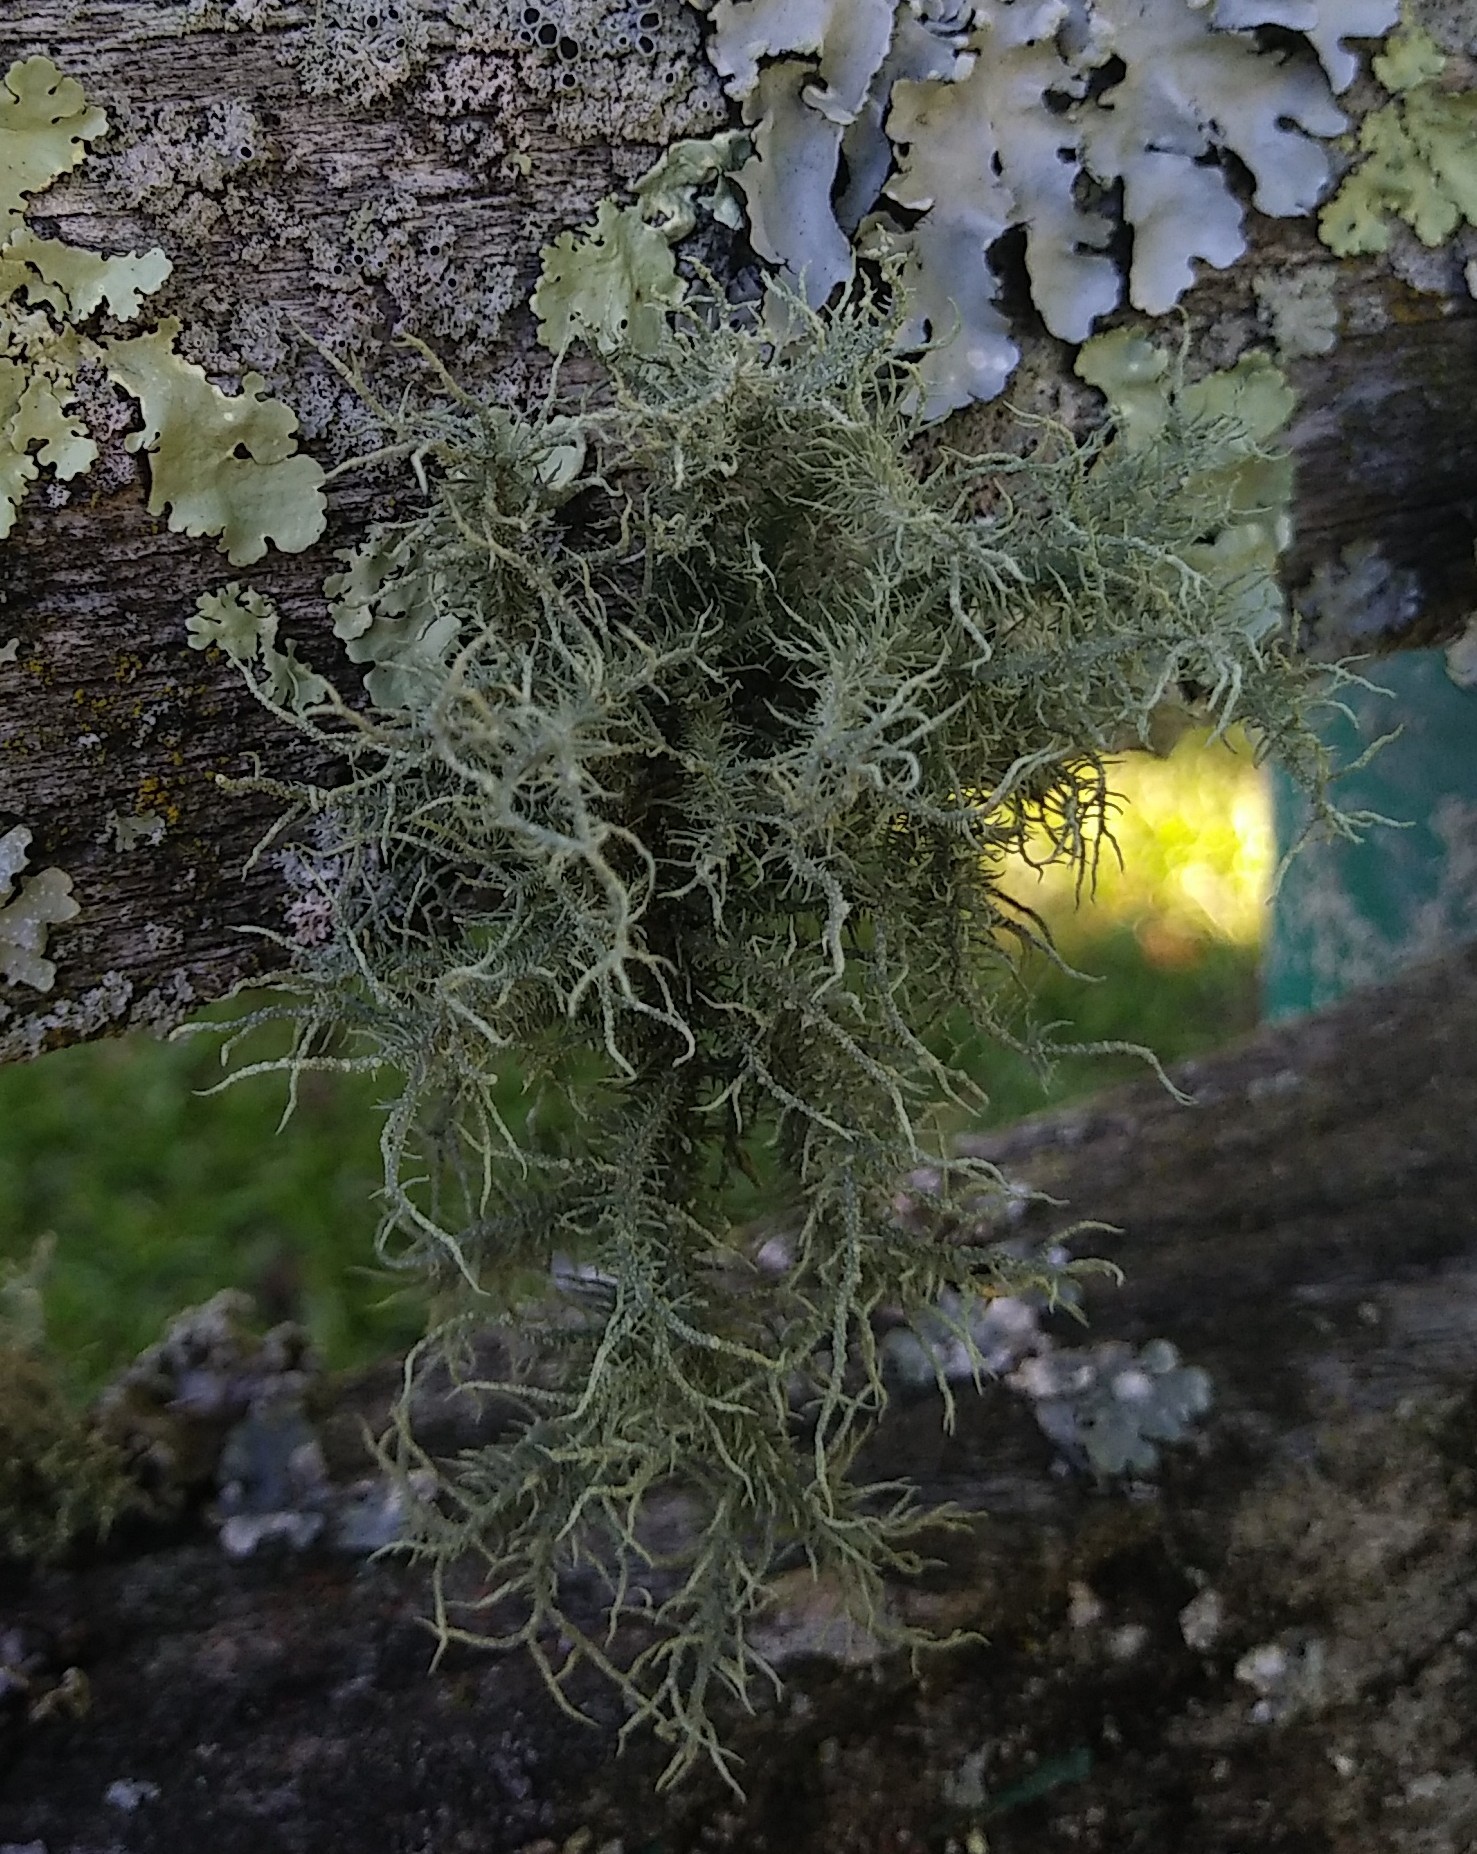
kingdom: Fungi
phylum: Ascomycota
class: Lecanoromycetes
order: Lecanorales
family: Parmeliaceae
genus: Usnea
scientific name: Usnea strigosa
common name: Bushy beard lichen
